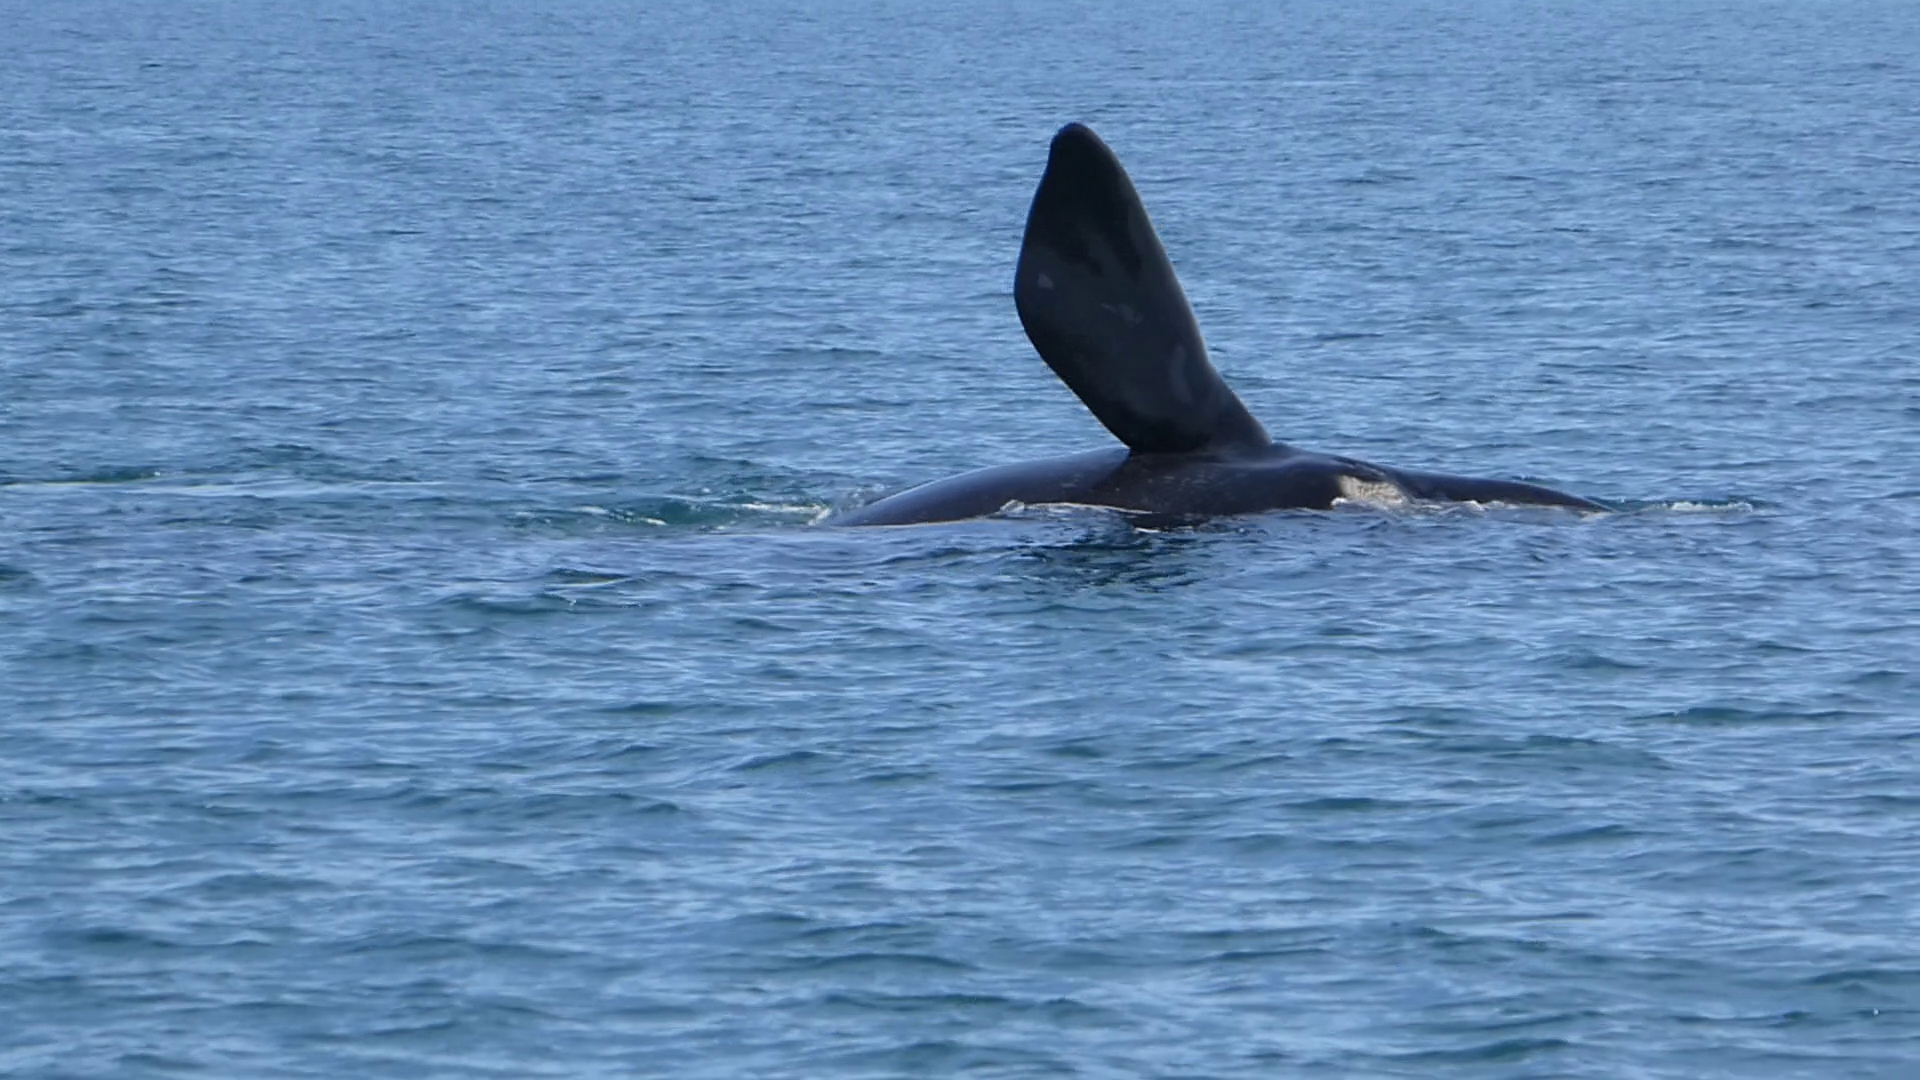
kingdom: Animalia
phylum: Chordata
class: Mammalia
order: Cetacea
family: Balaenidae
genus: Eubalaena
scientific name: Eubalaena australis
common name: Southern right whale
